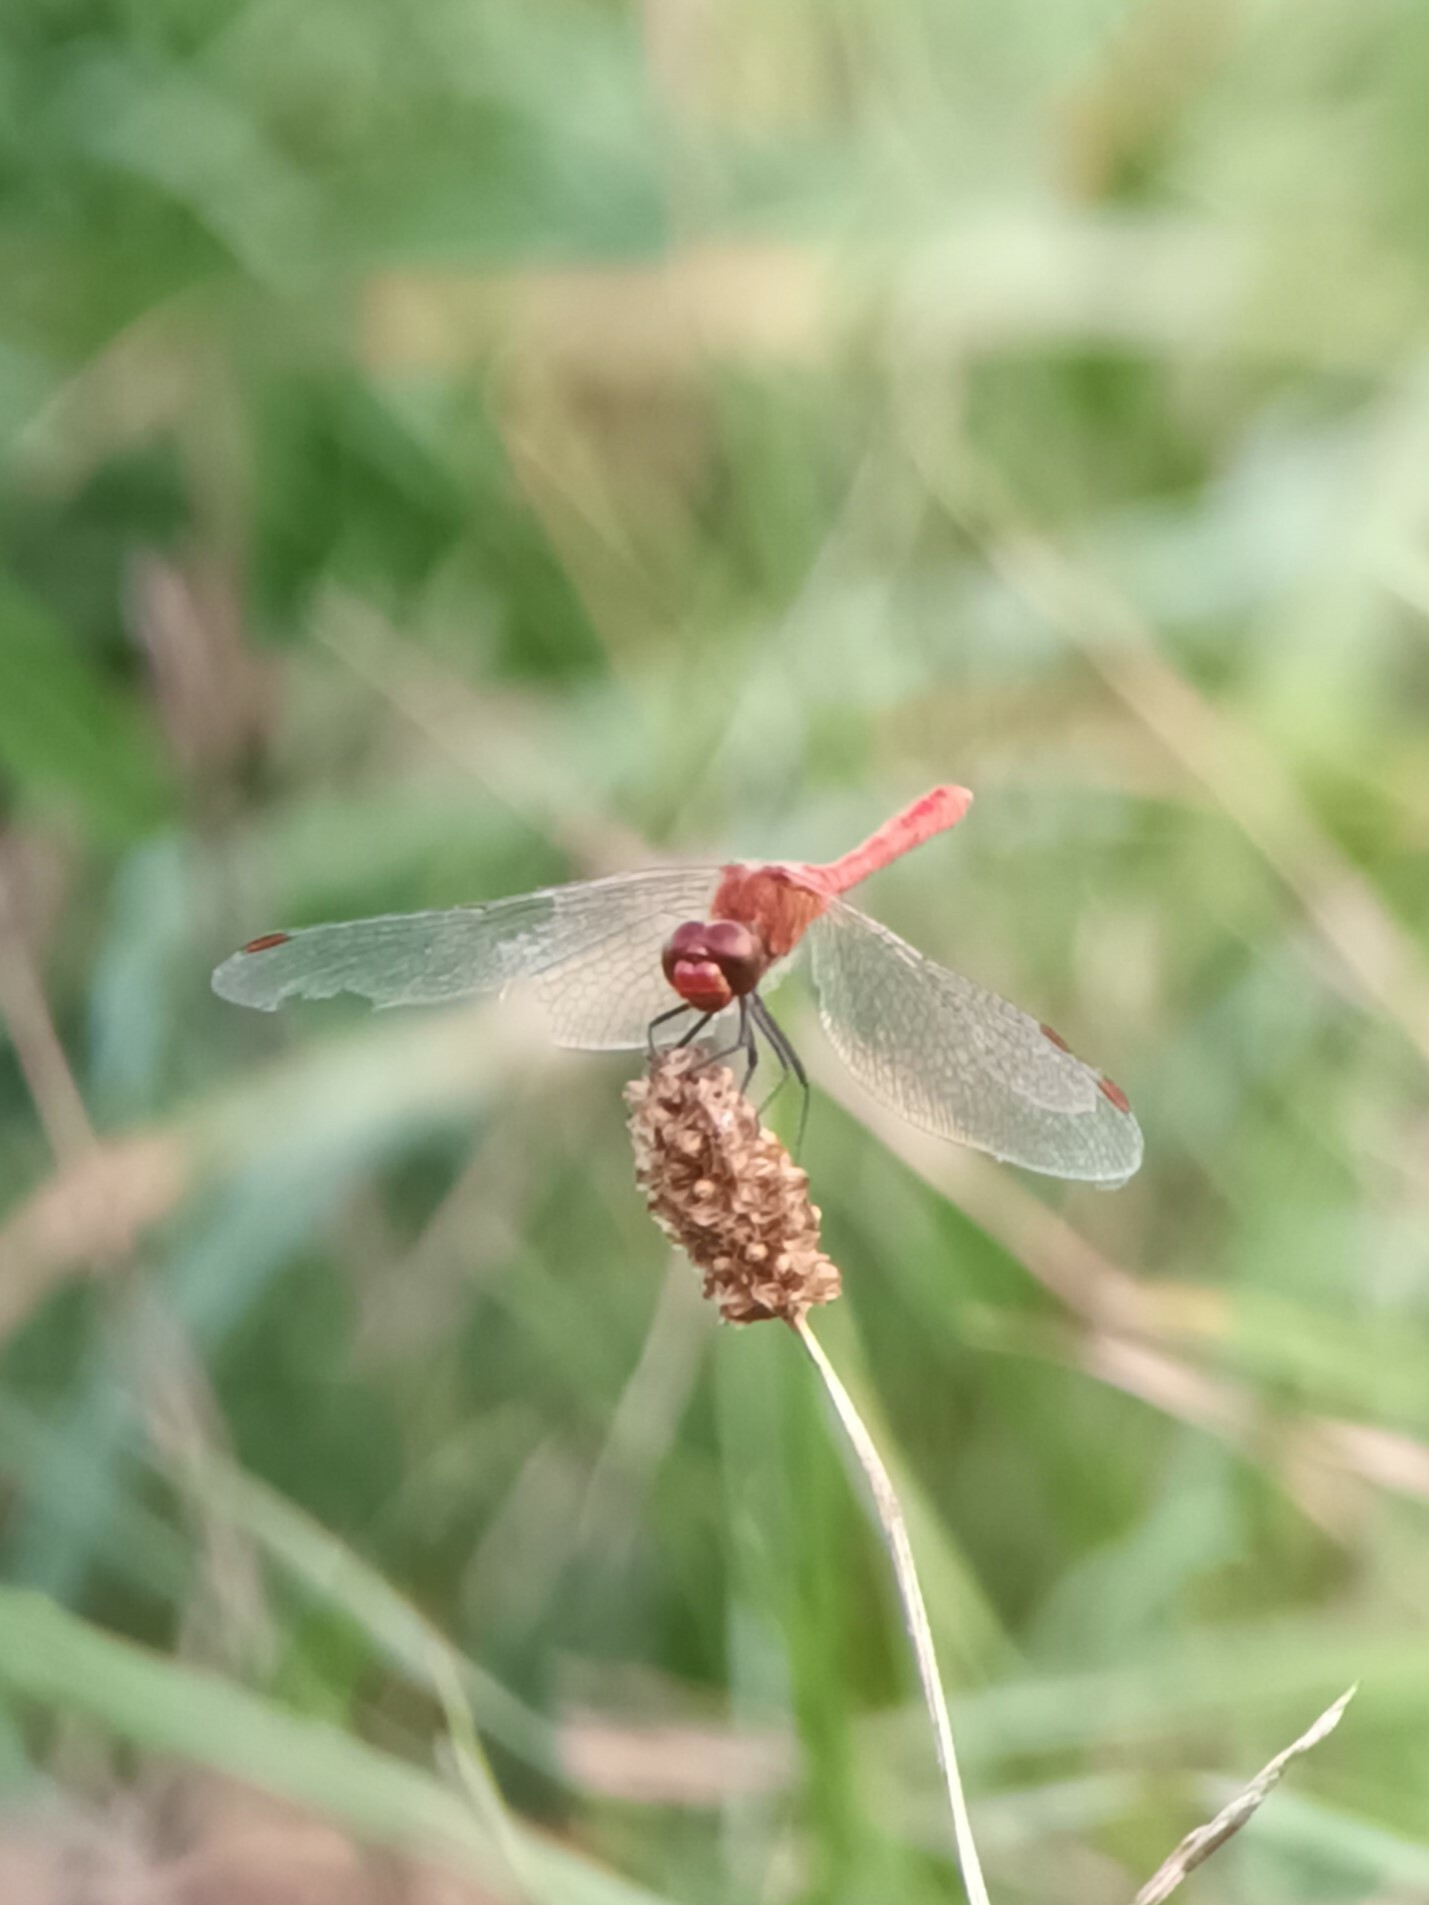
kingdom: Animalia
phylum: Arthropoda
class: Insecta
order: Odonata
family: Libellulidae
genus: Sympetrum
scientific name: Sympetrum sanguineum
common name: Ruddy darter
